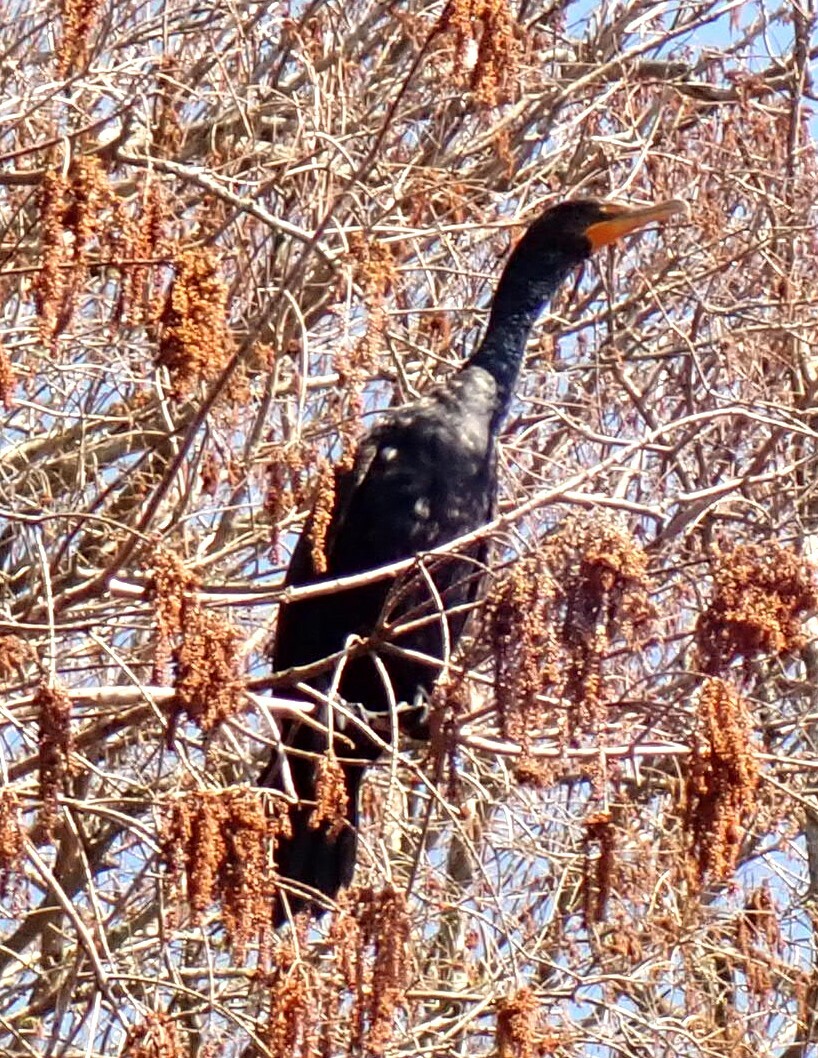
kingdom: Animalia
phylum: Chordata
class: Aves
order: Suliformes
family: Phalacrocoracidae
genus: Phalacrocorax
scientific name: Phalacrocorax auritus
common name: Double-crested cormorant
